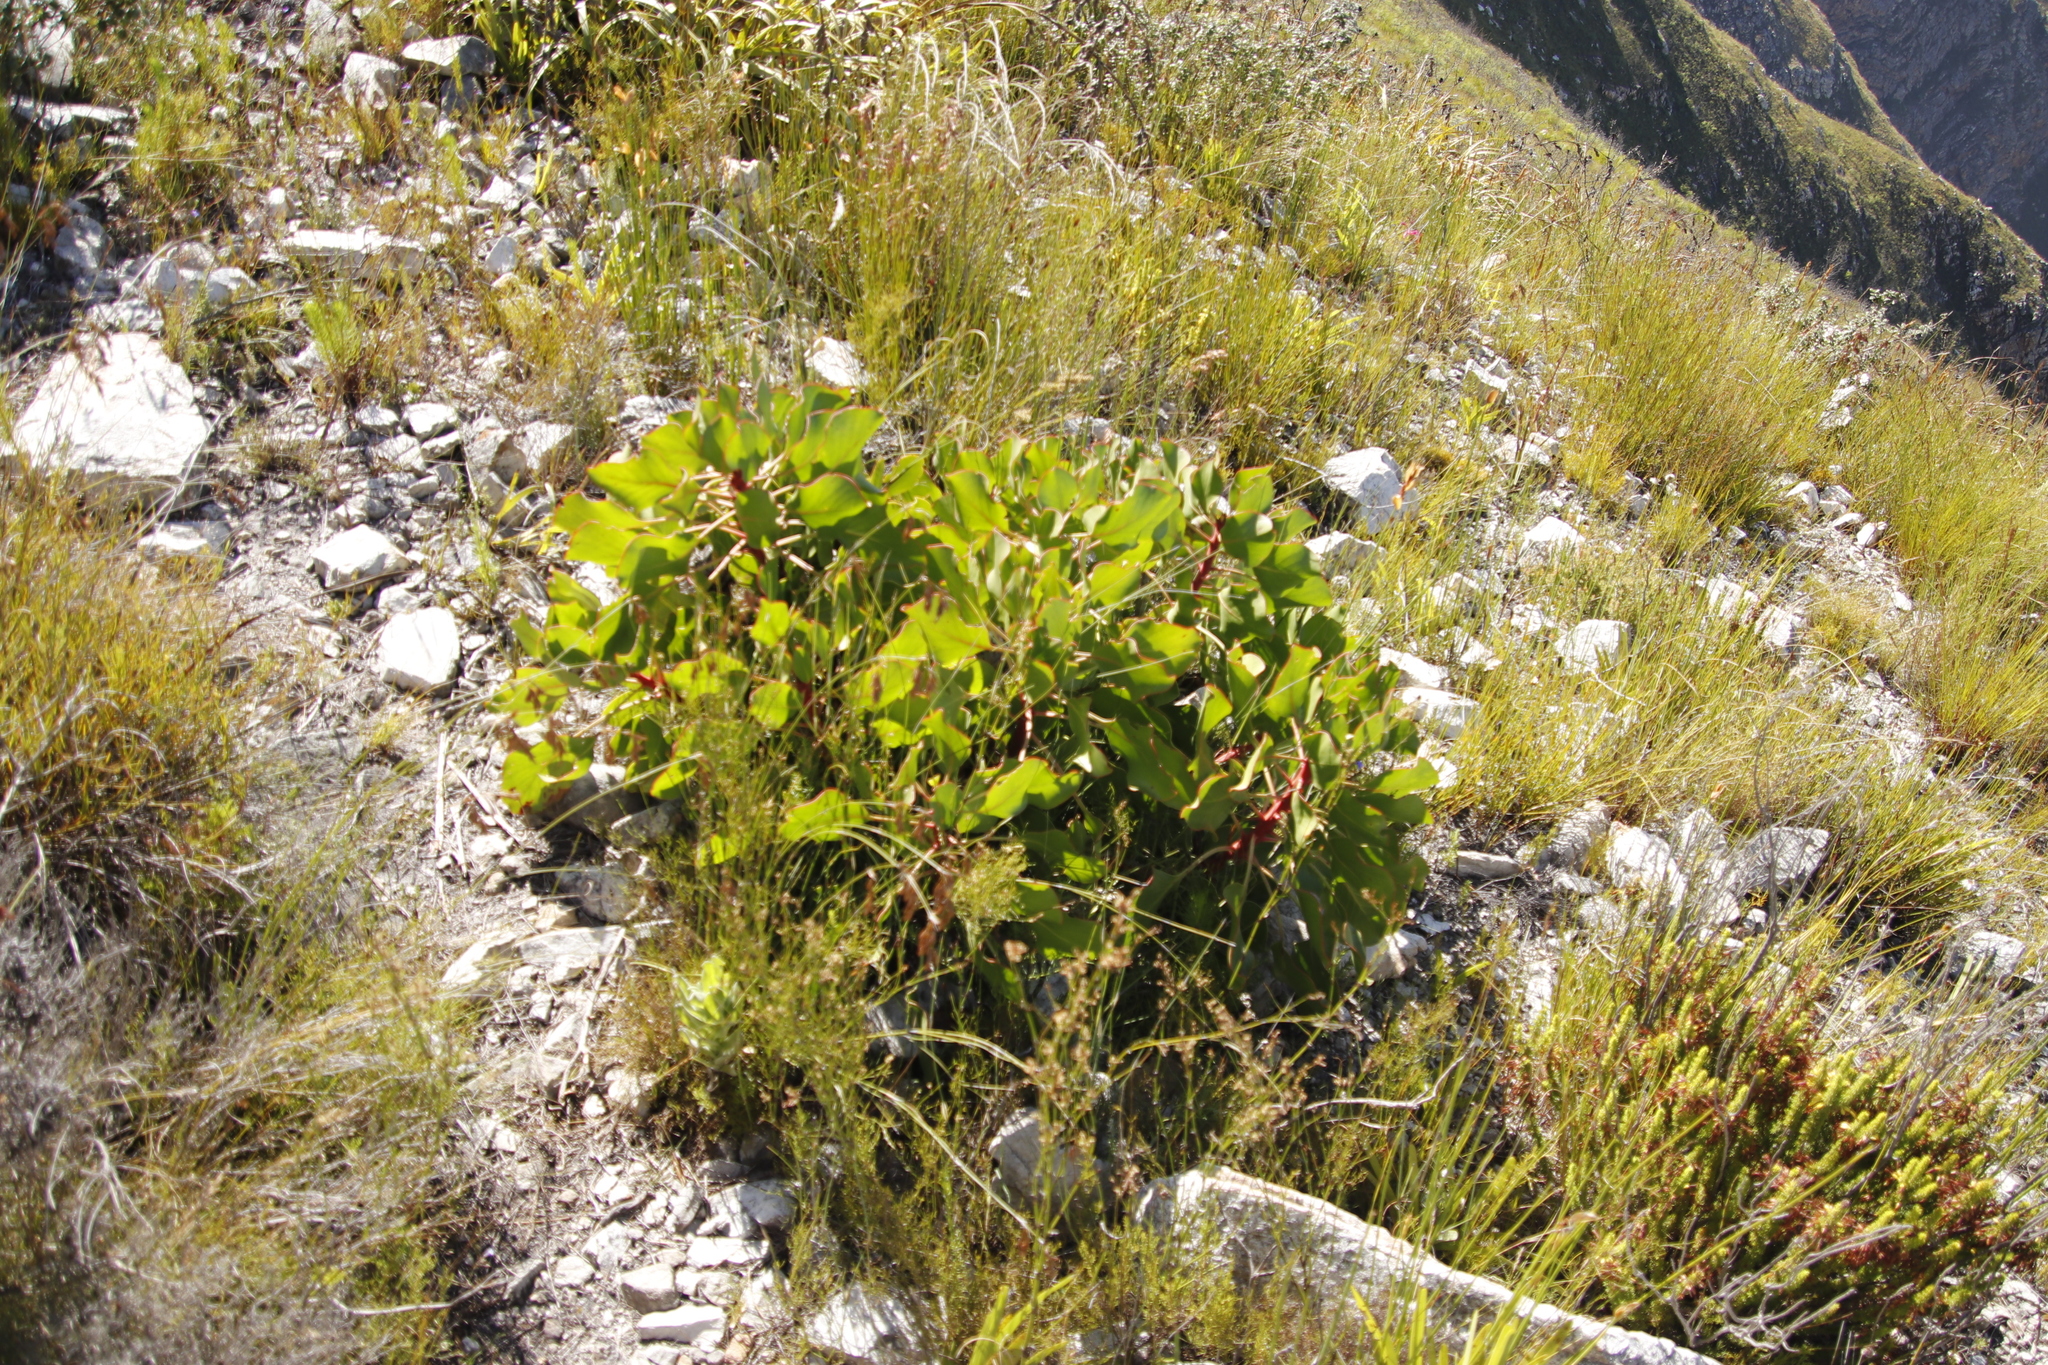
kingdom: Plantae
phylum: Tracheophyta
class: Magnoliopsida
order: Proteales
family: Proteaceae
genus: Protea
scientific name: Protea cynaroides
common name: King protea
